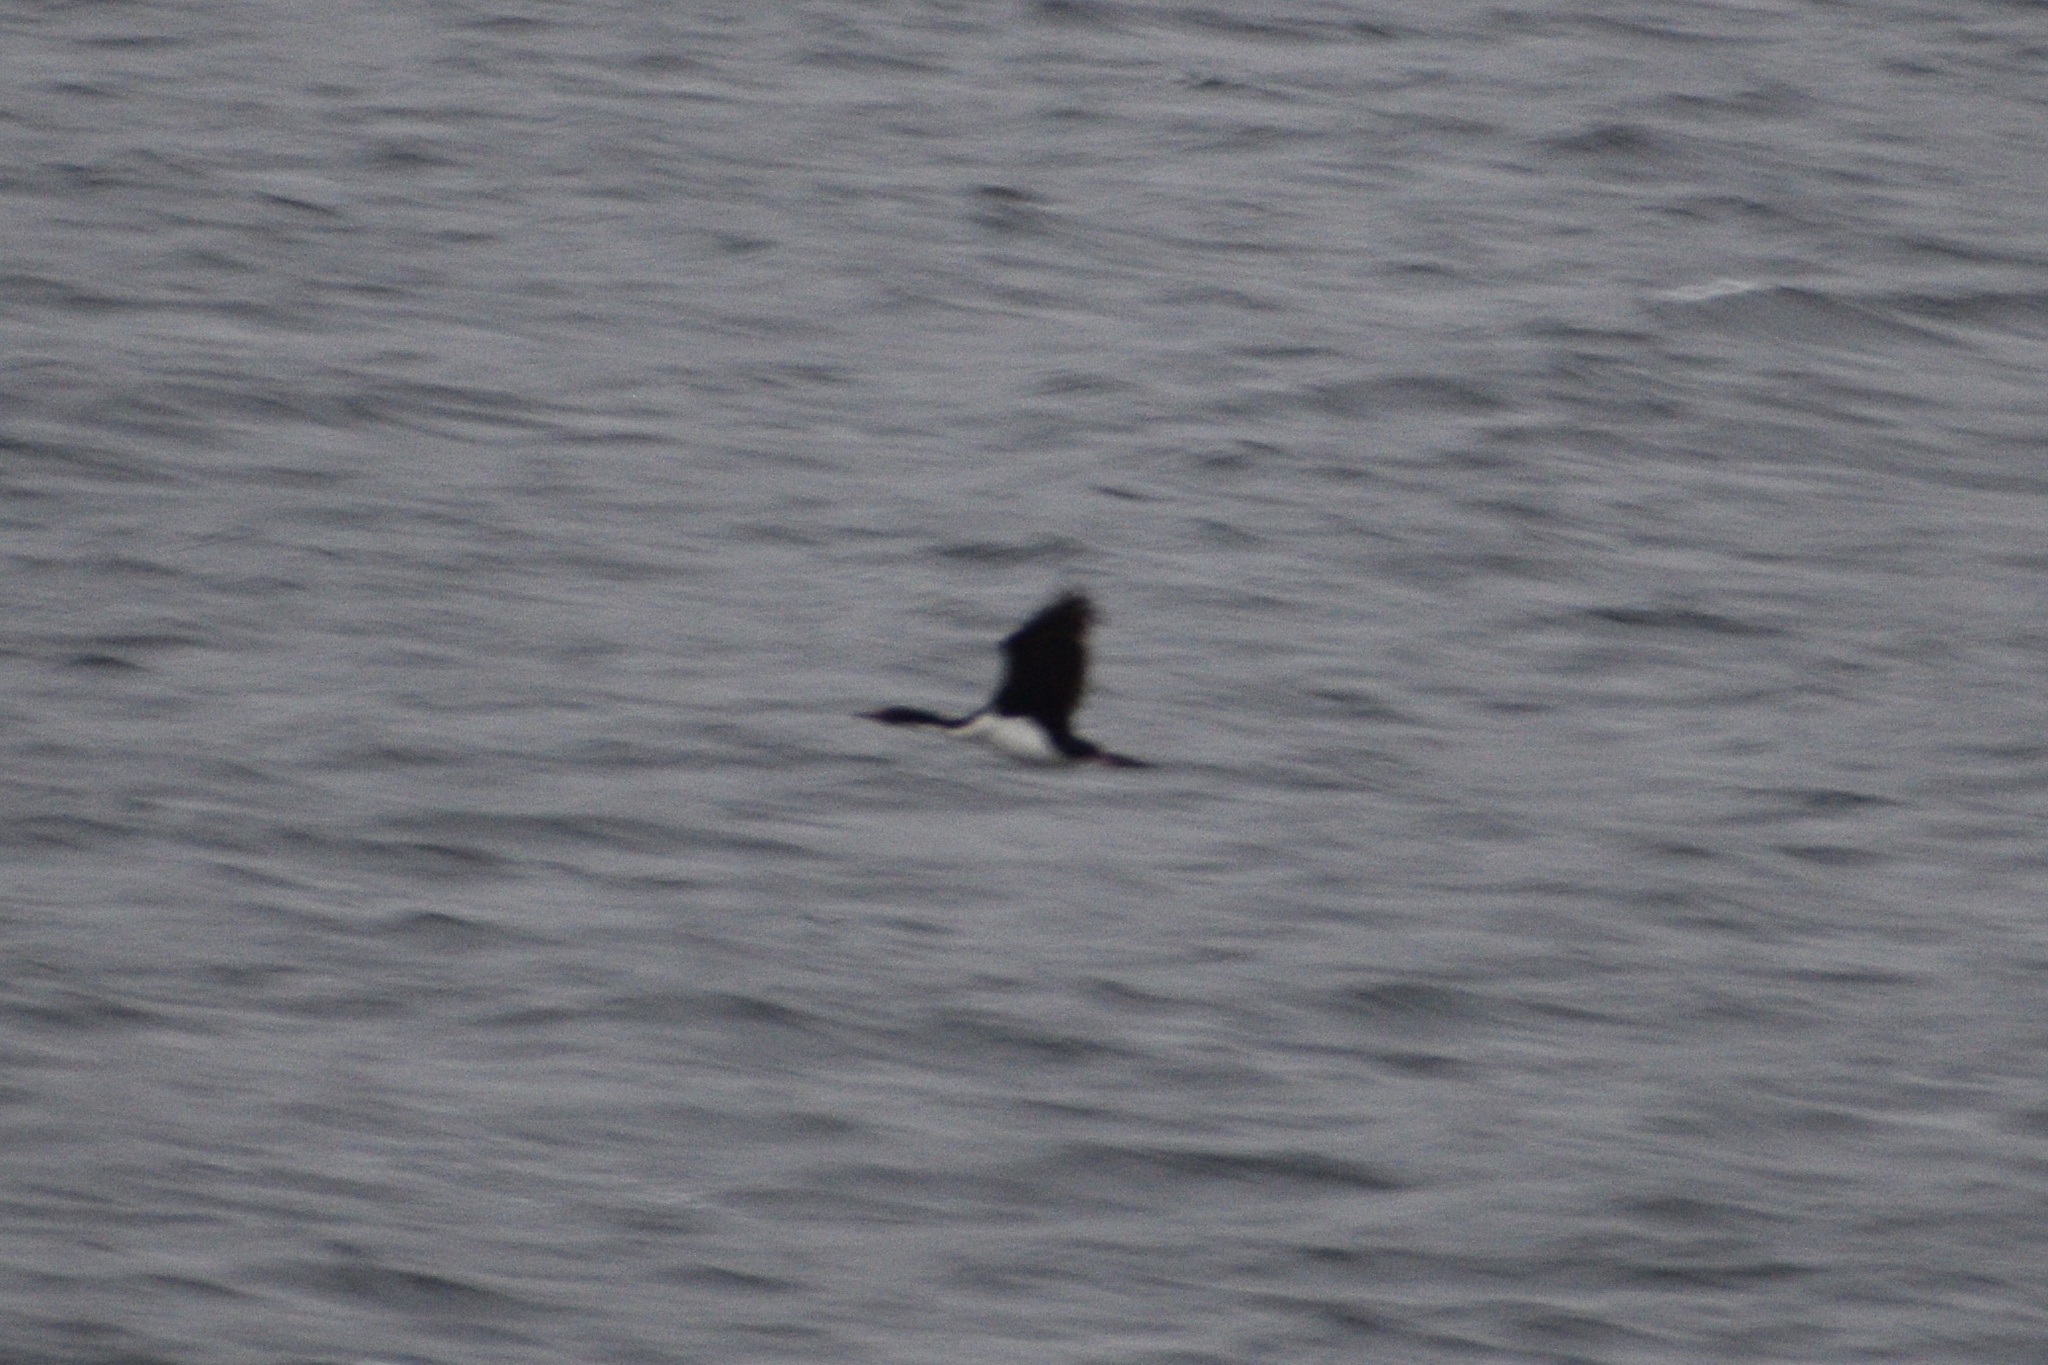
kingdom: Animalia
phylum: Chordata
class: Aves
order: Suliformes
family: Phalacrocoracidae
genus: Leucocarbo
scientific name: Leucocarbo atriceps
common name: Imperial shag
